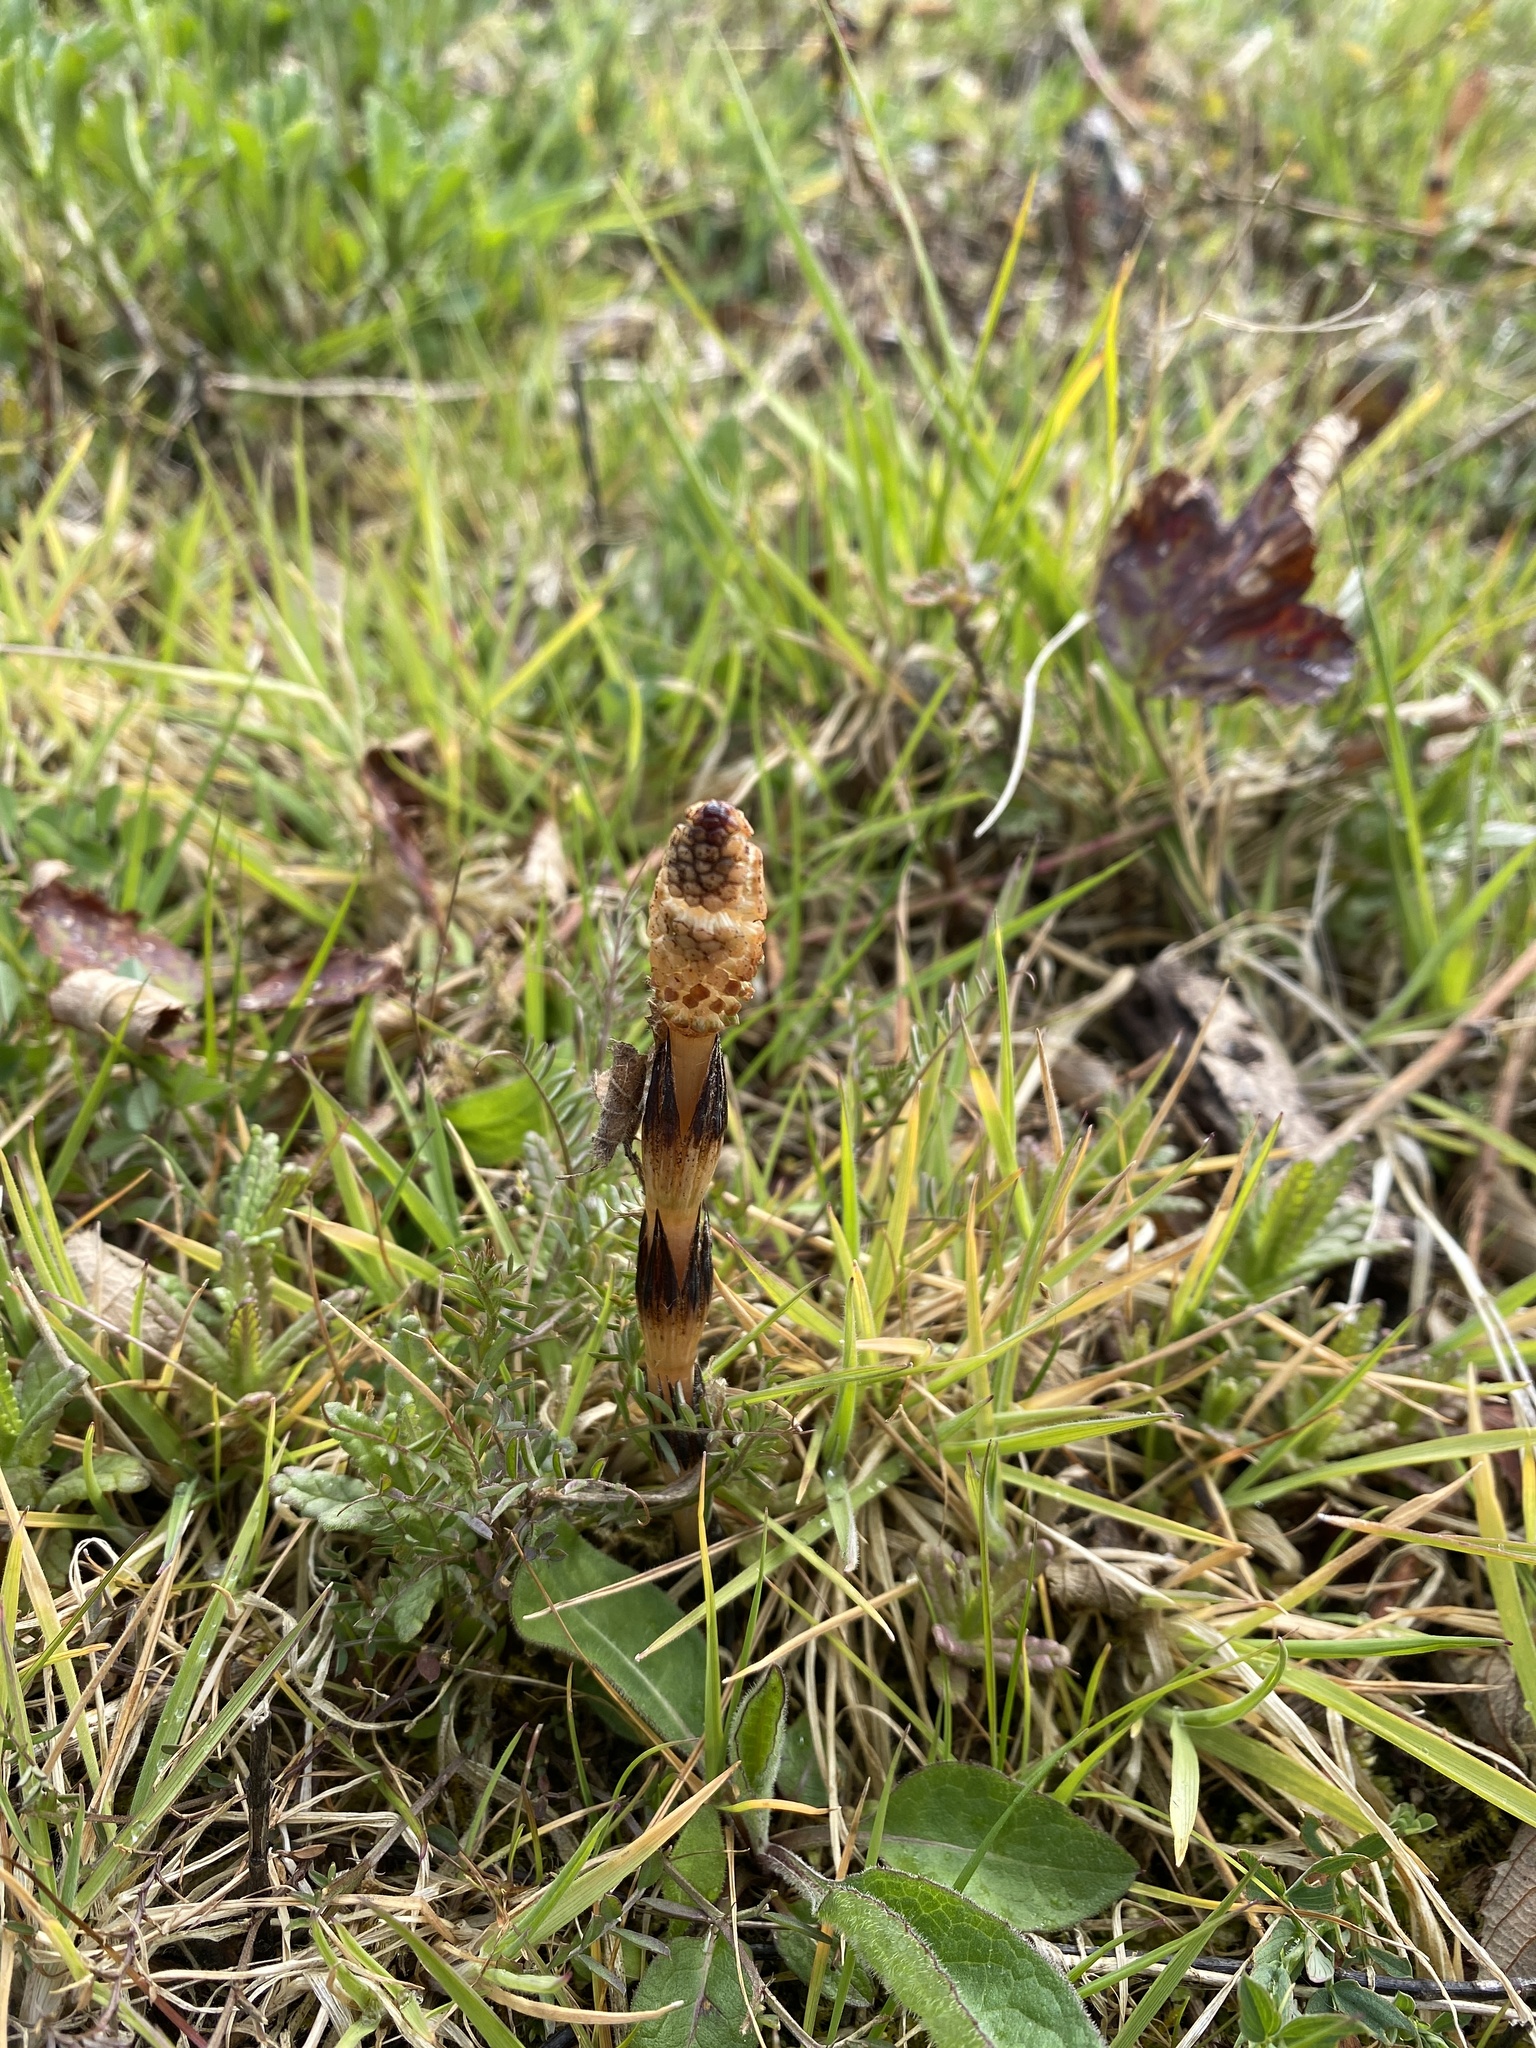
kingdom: Plantae
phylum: Tracheophyta
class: Polypodiopsida
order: Equisetales
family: Equisetaceae
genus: Equisetum
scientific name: Equisetum arvense
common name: Field horsetail
